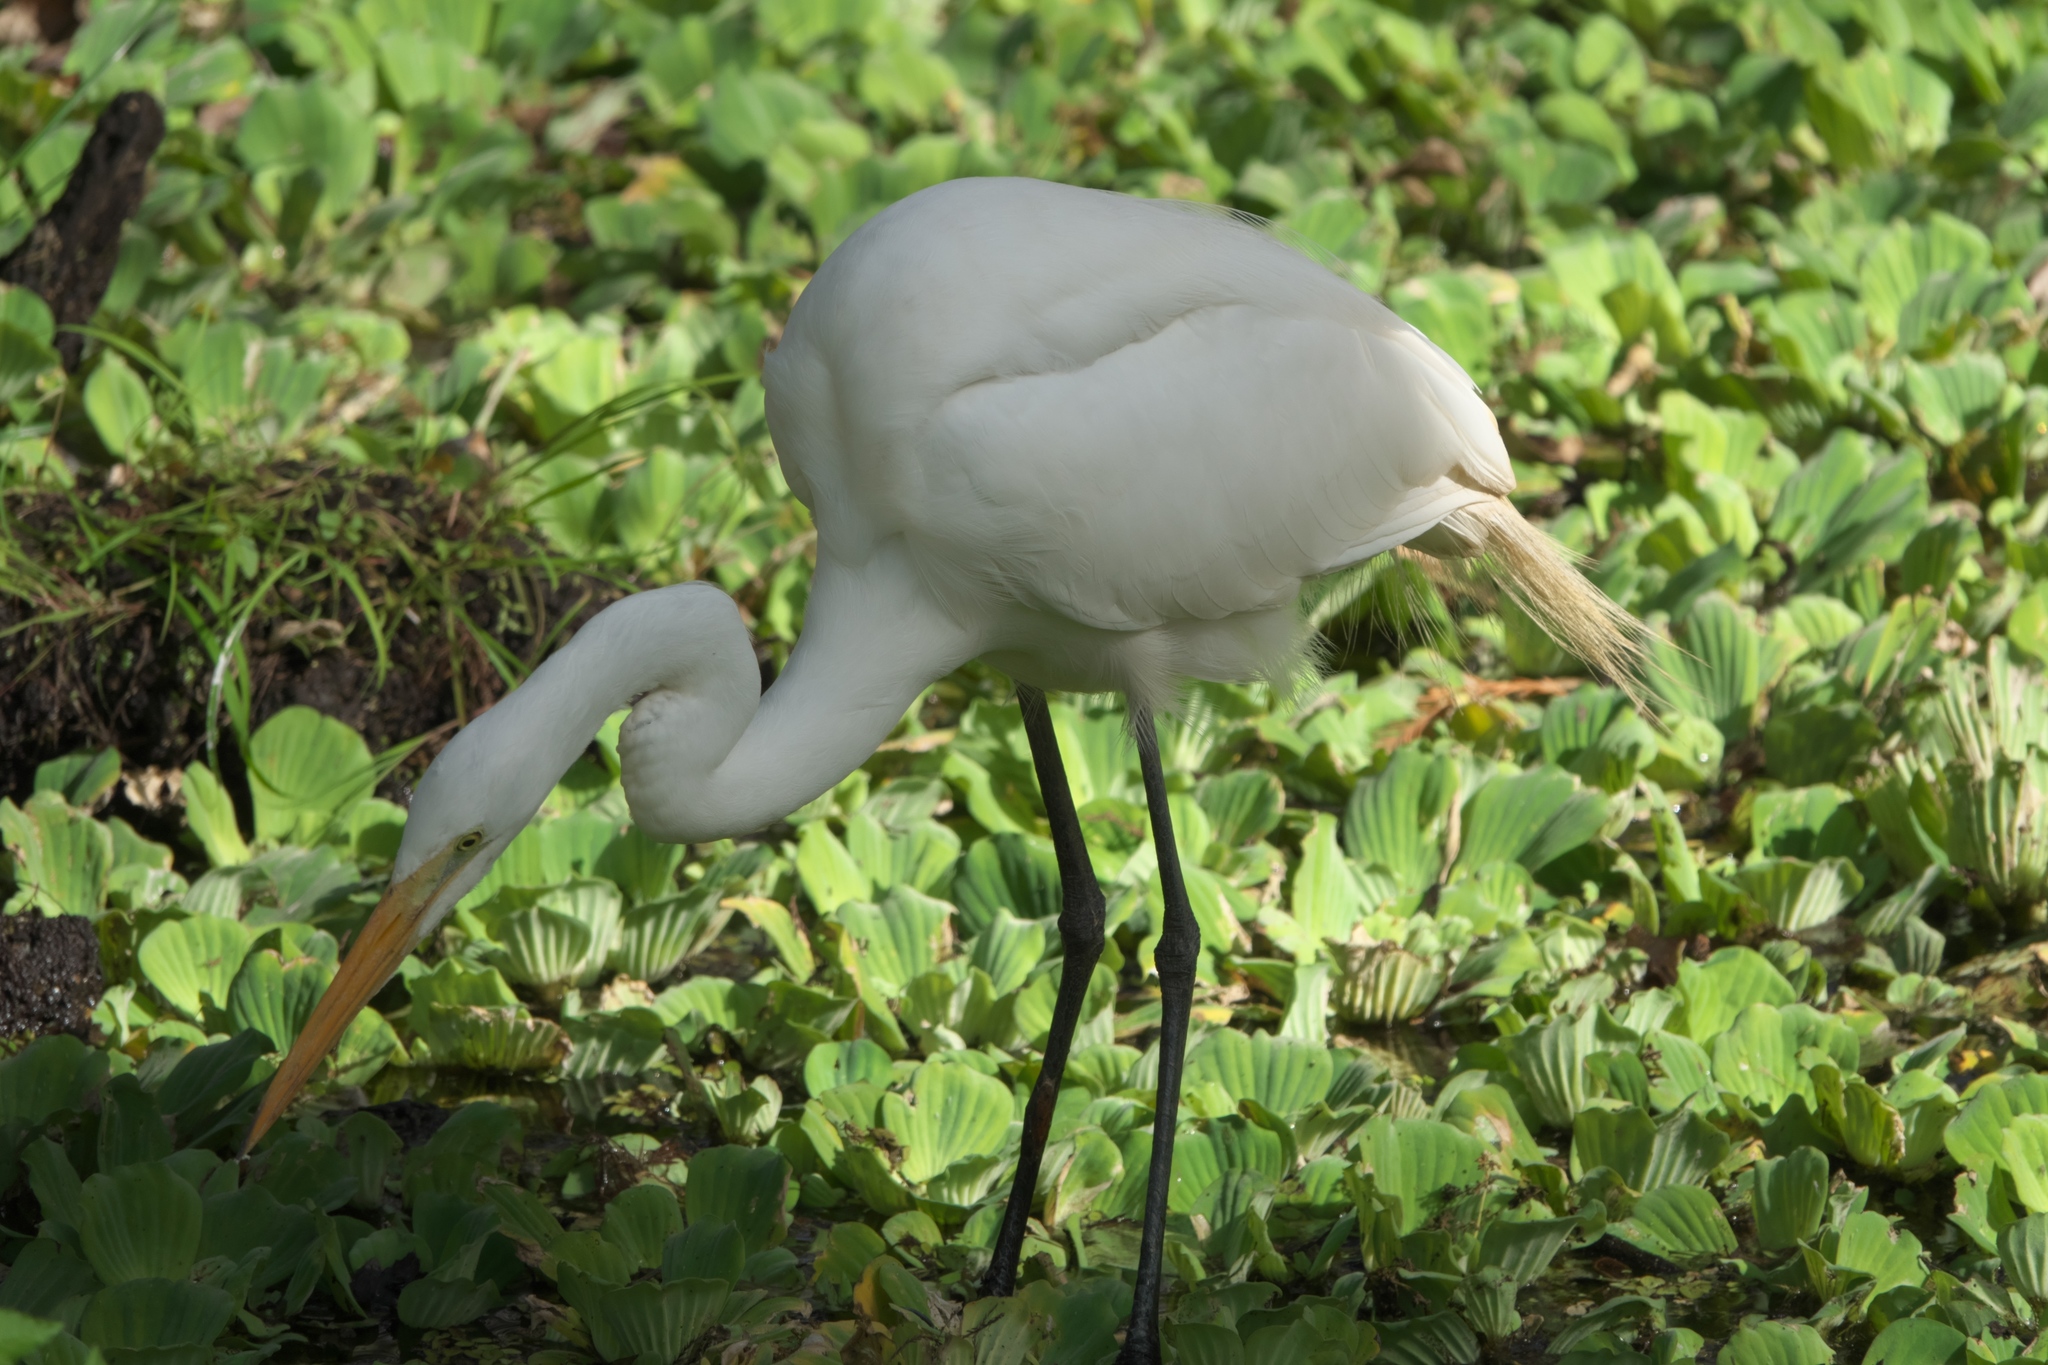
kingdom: Animalia
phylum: Chordata
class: Aves
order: Pelecaniformes
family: Ardeidae
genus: Ardea
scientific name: Ardea alba
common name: Great egret
